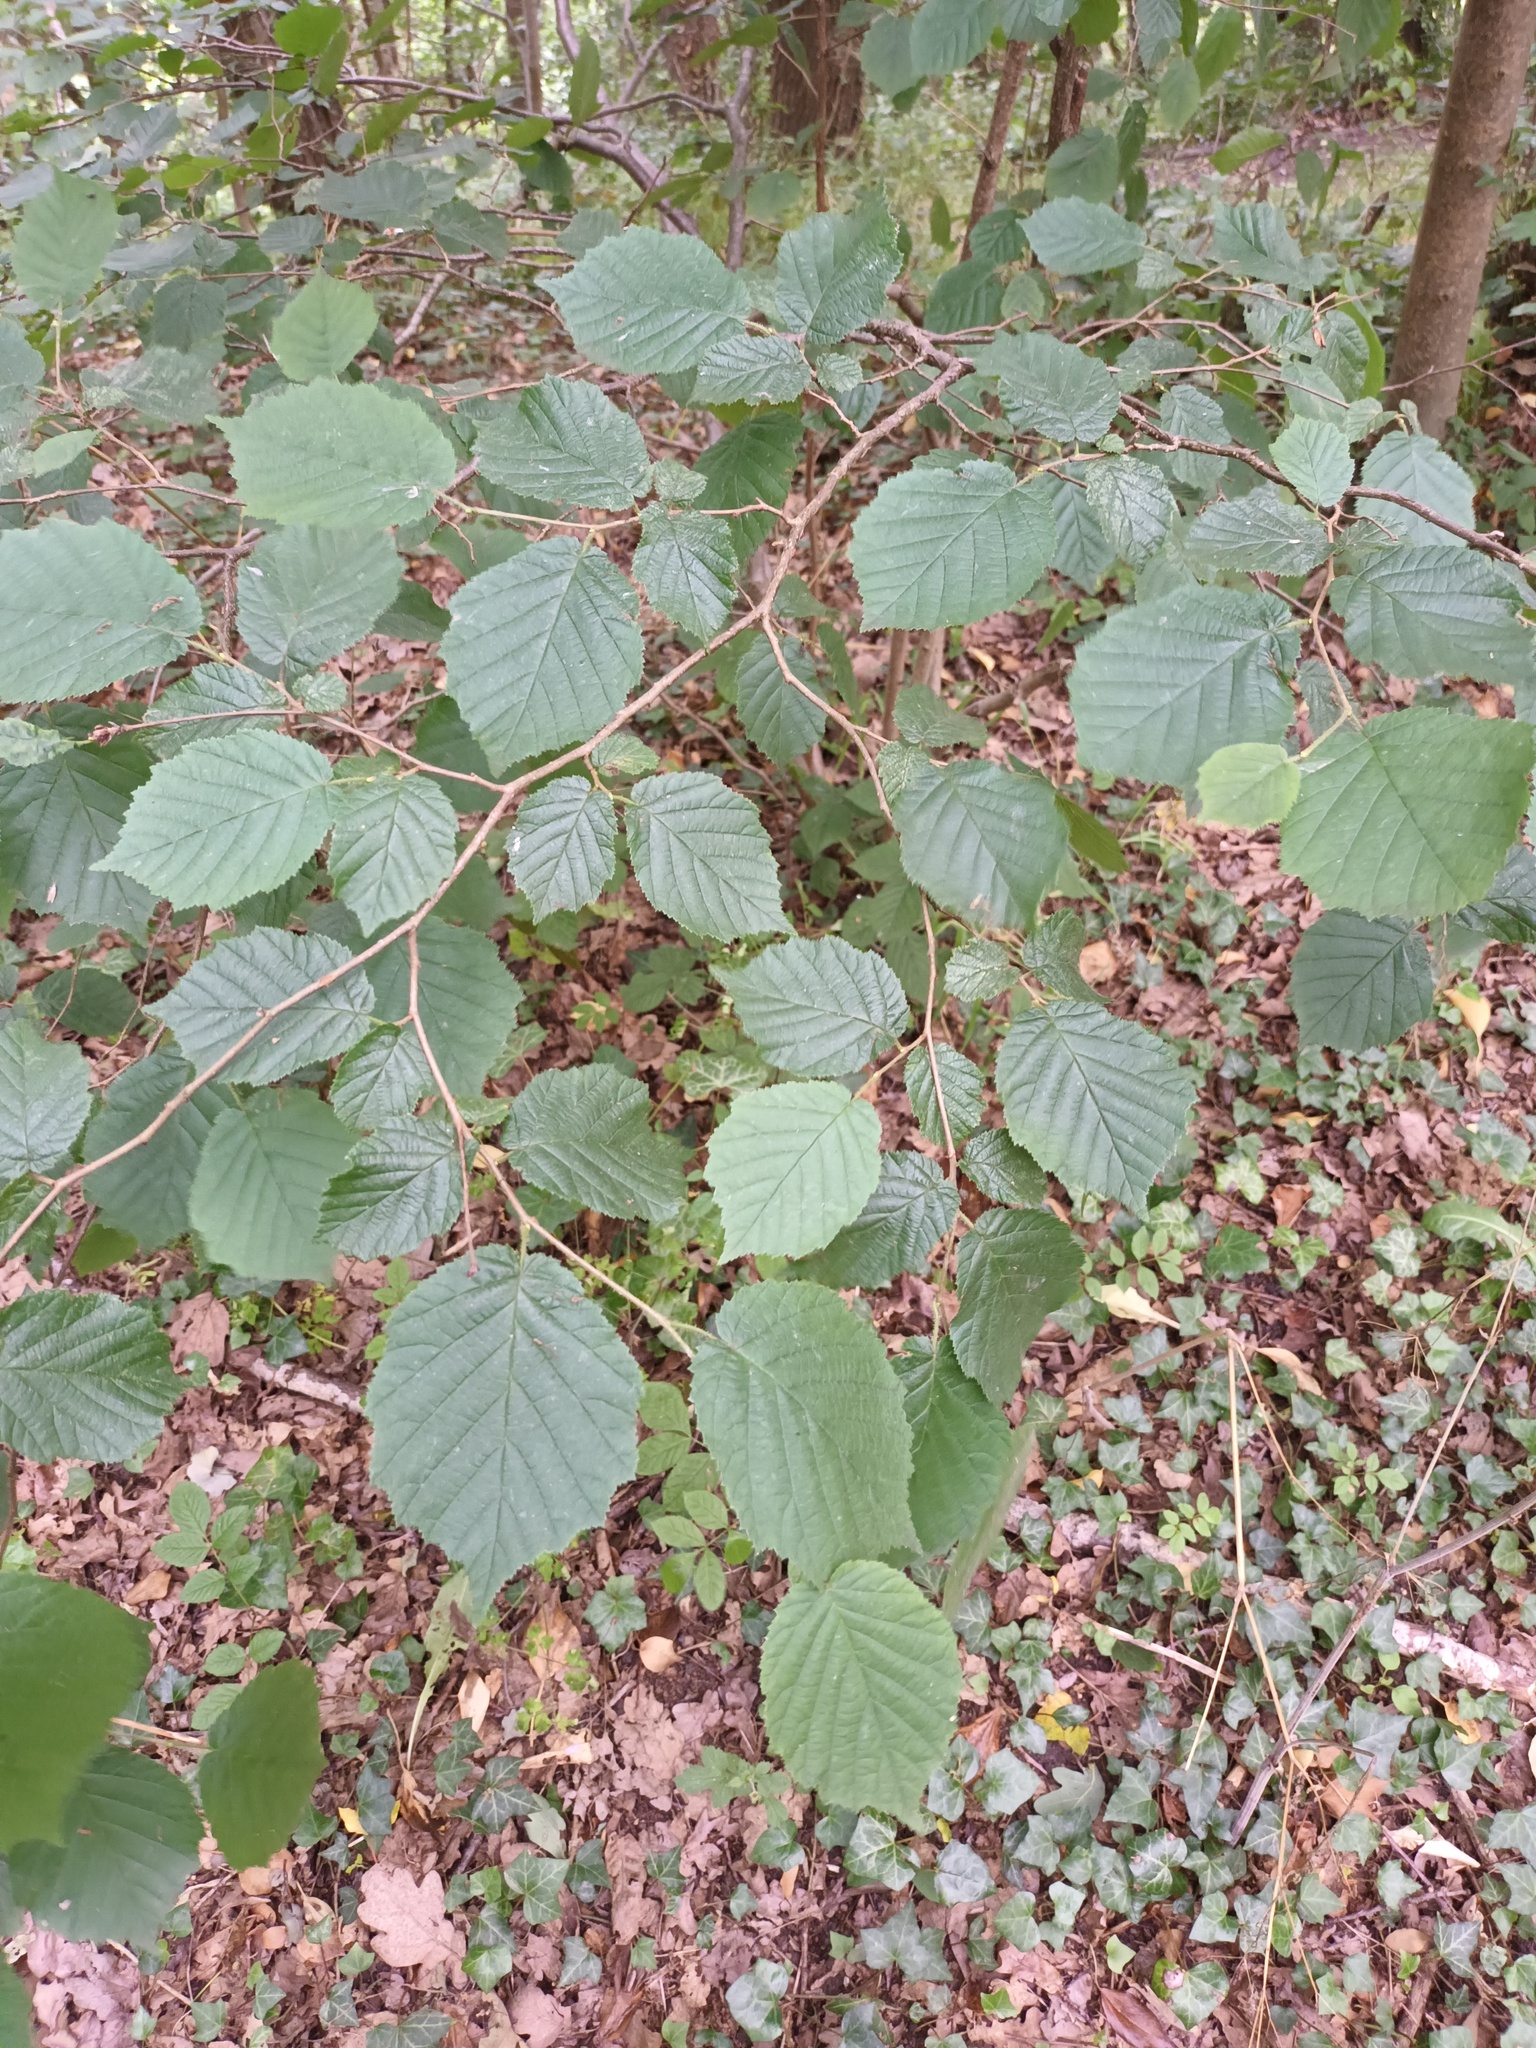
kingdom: Plantae
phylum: Tracheophyta
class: Magnoliopsida
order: Fagales
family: Betulaceae
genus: Corylus
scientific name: Corylus avellana
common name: European hazel
